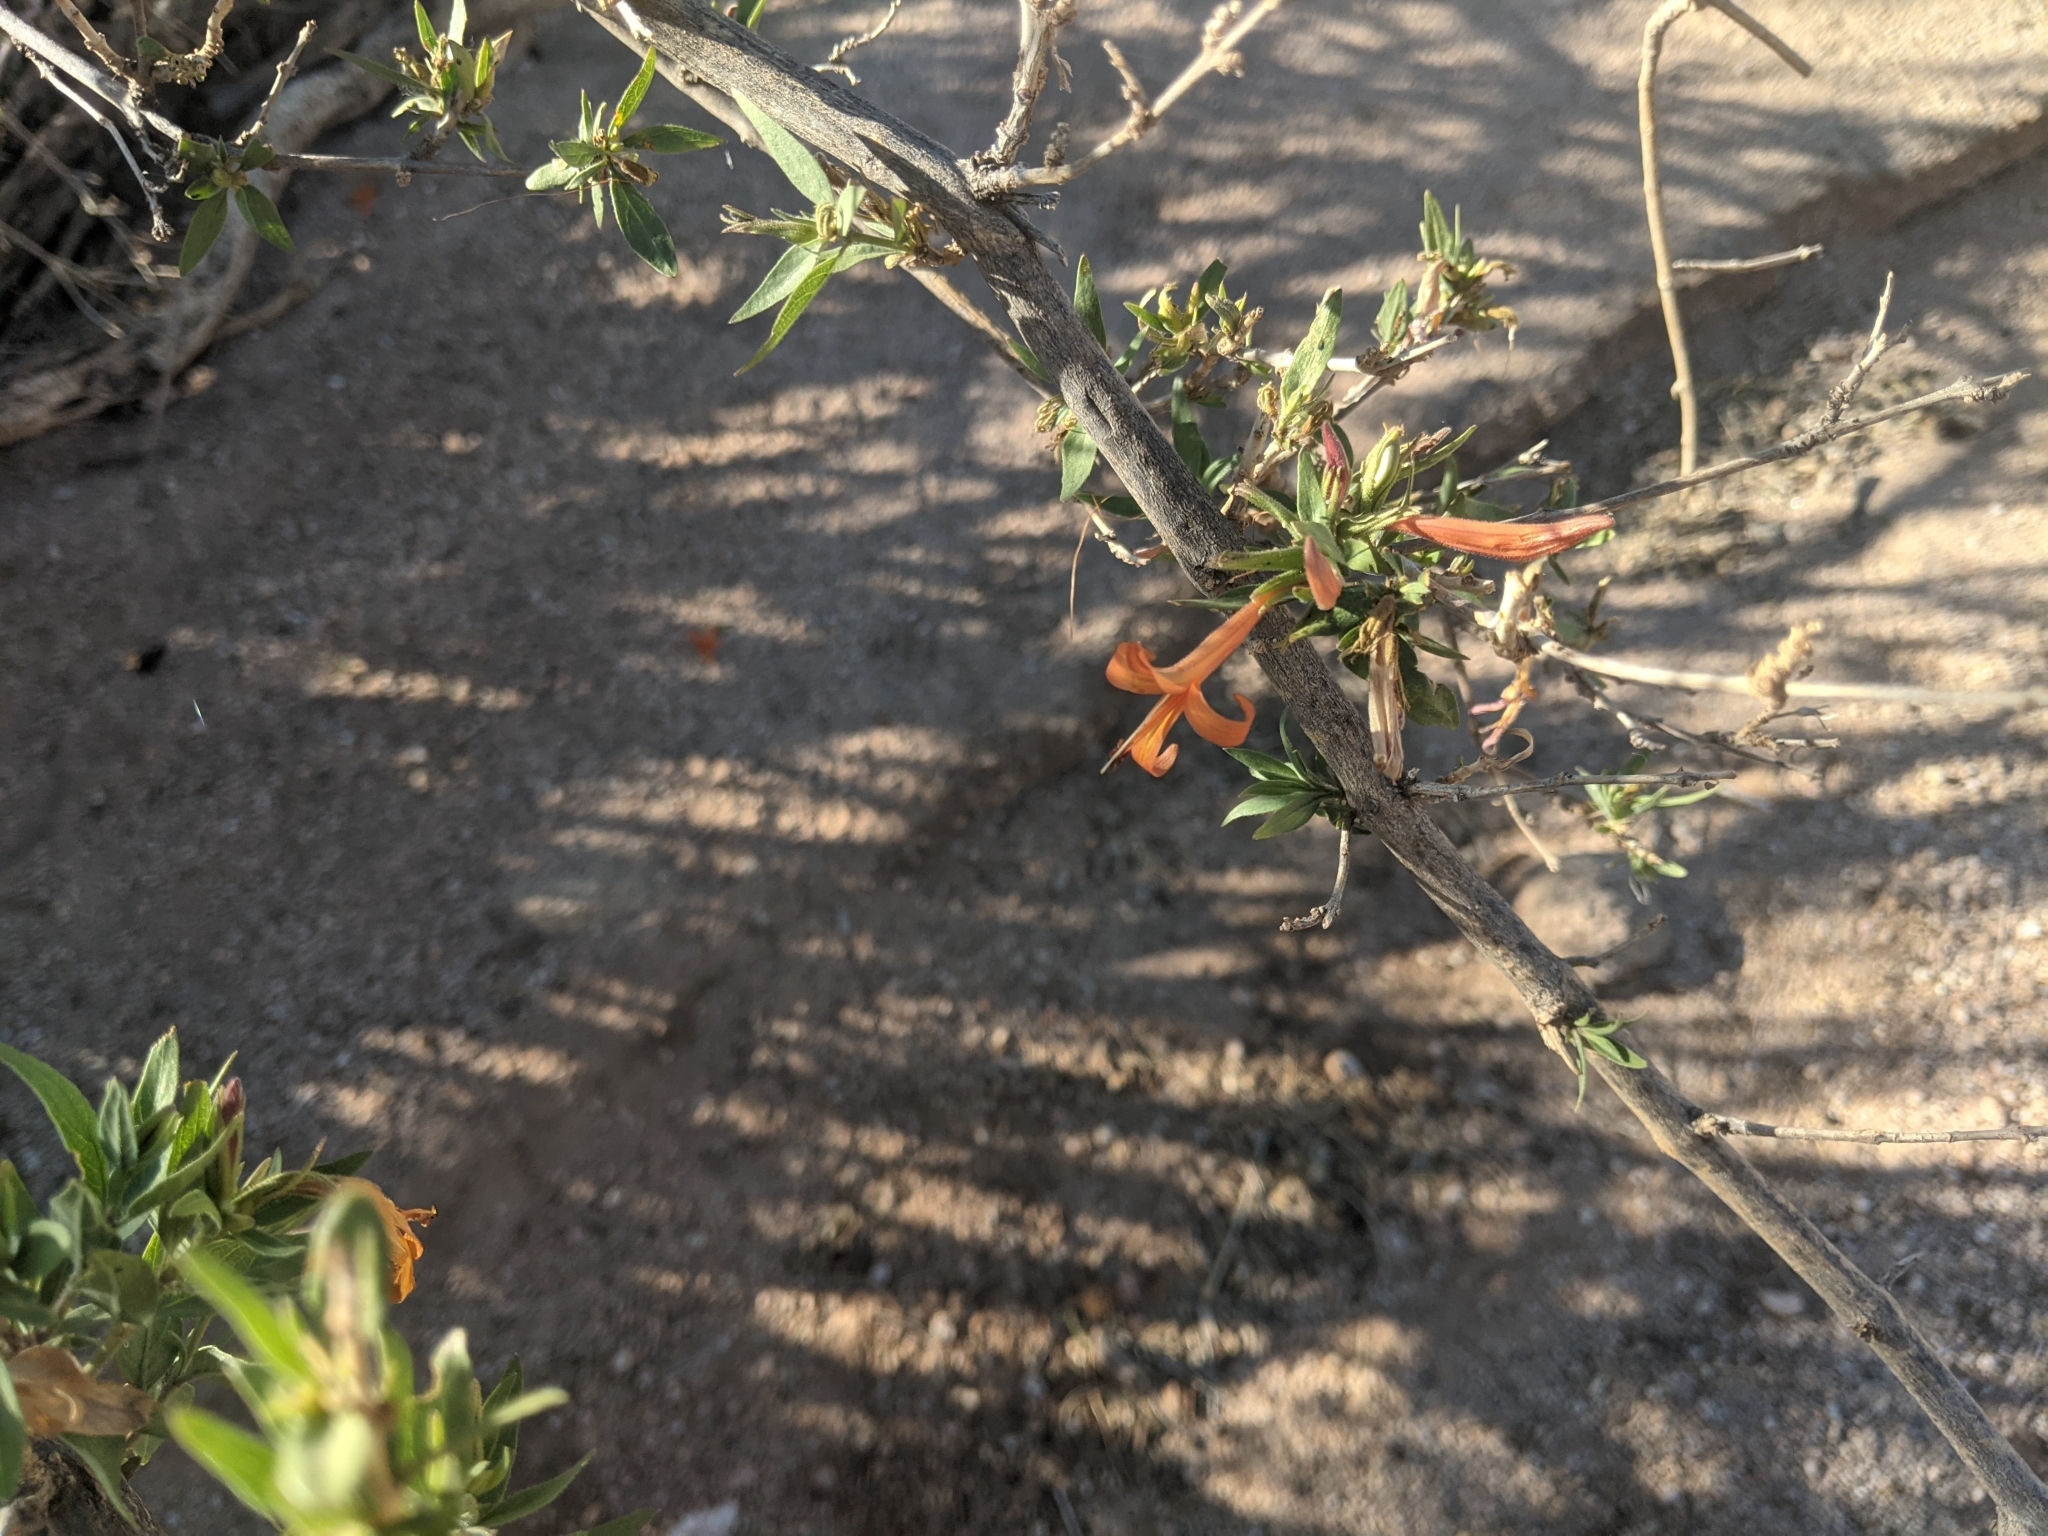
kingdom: Plantae
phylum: Tracheophyta
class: Magnoliopsida
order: Lamiales
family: Acanthaceae
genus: Anisacanthus
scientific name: Anisacanthus thurberi
